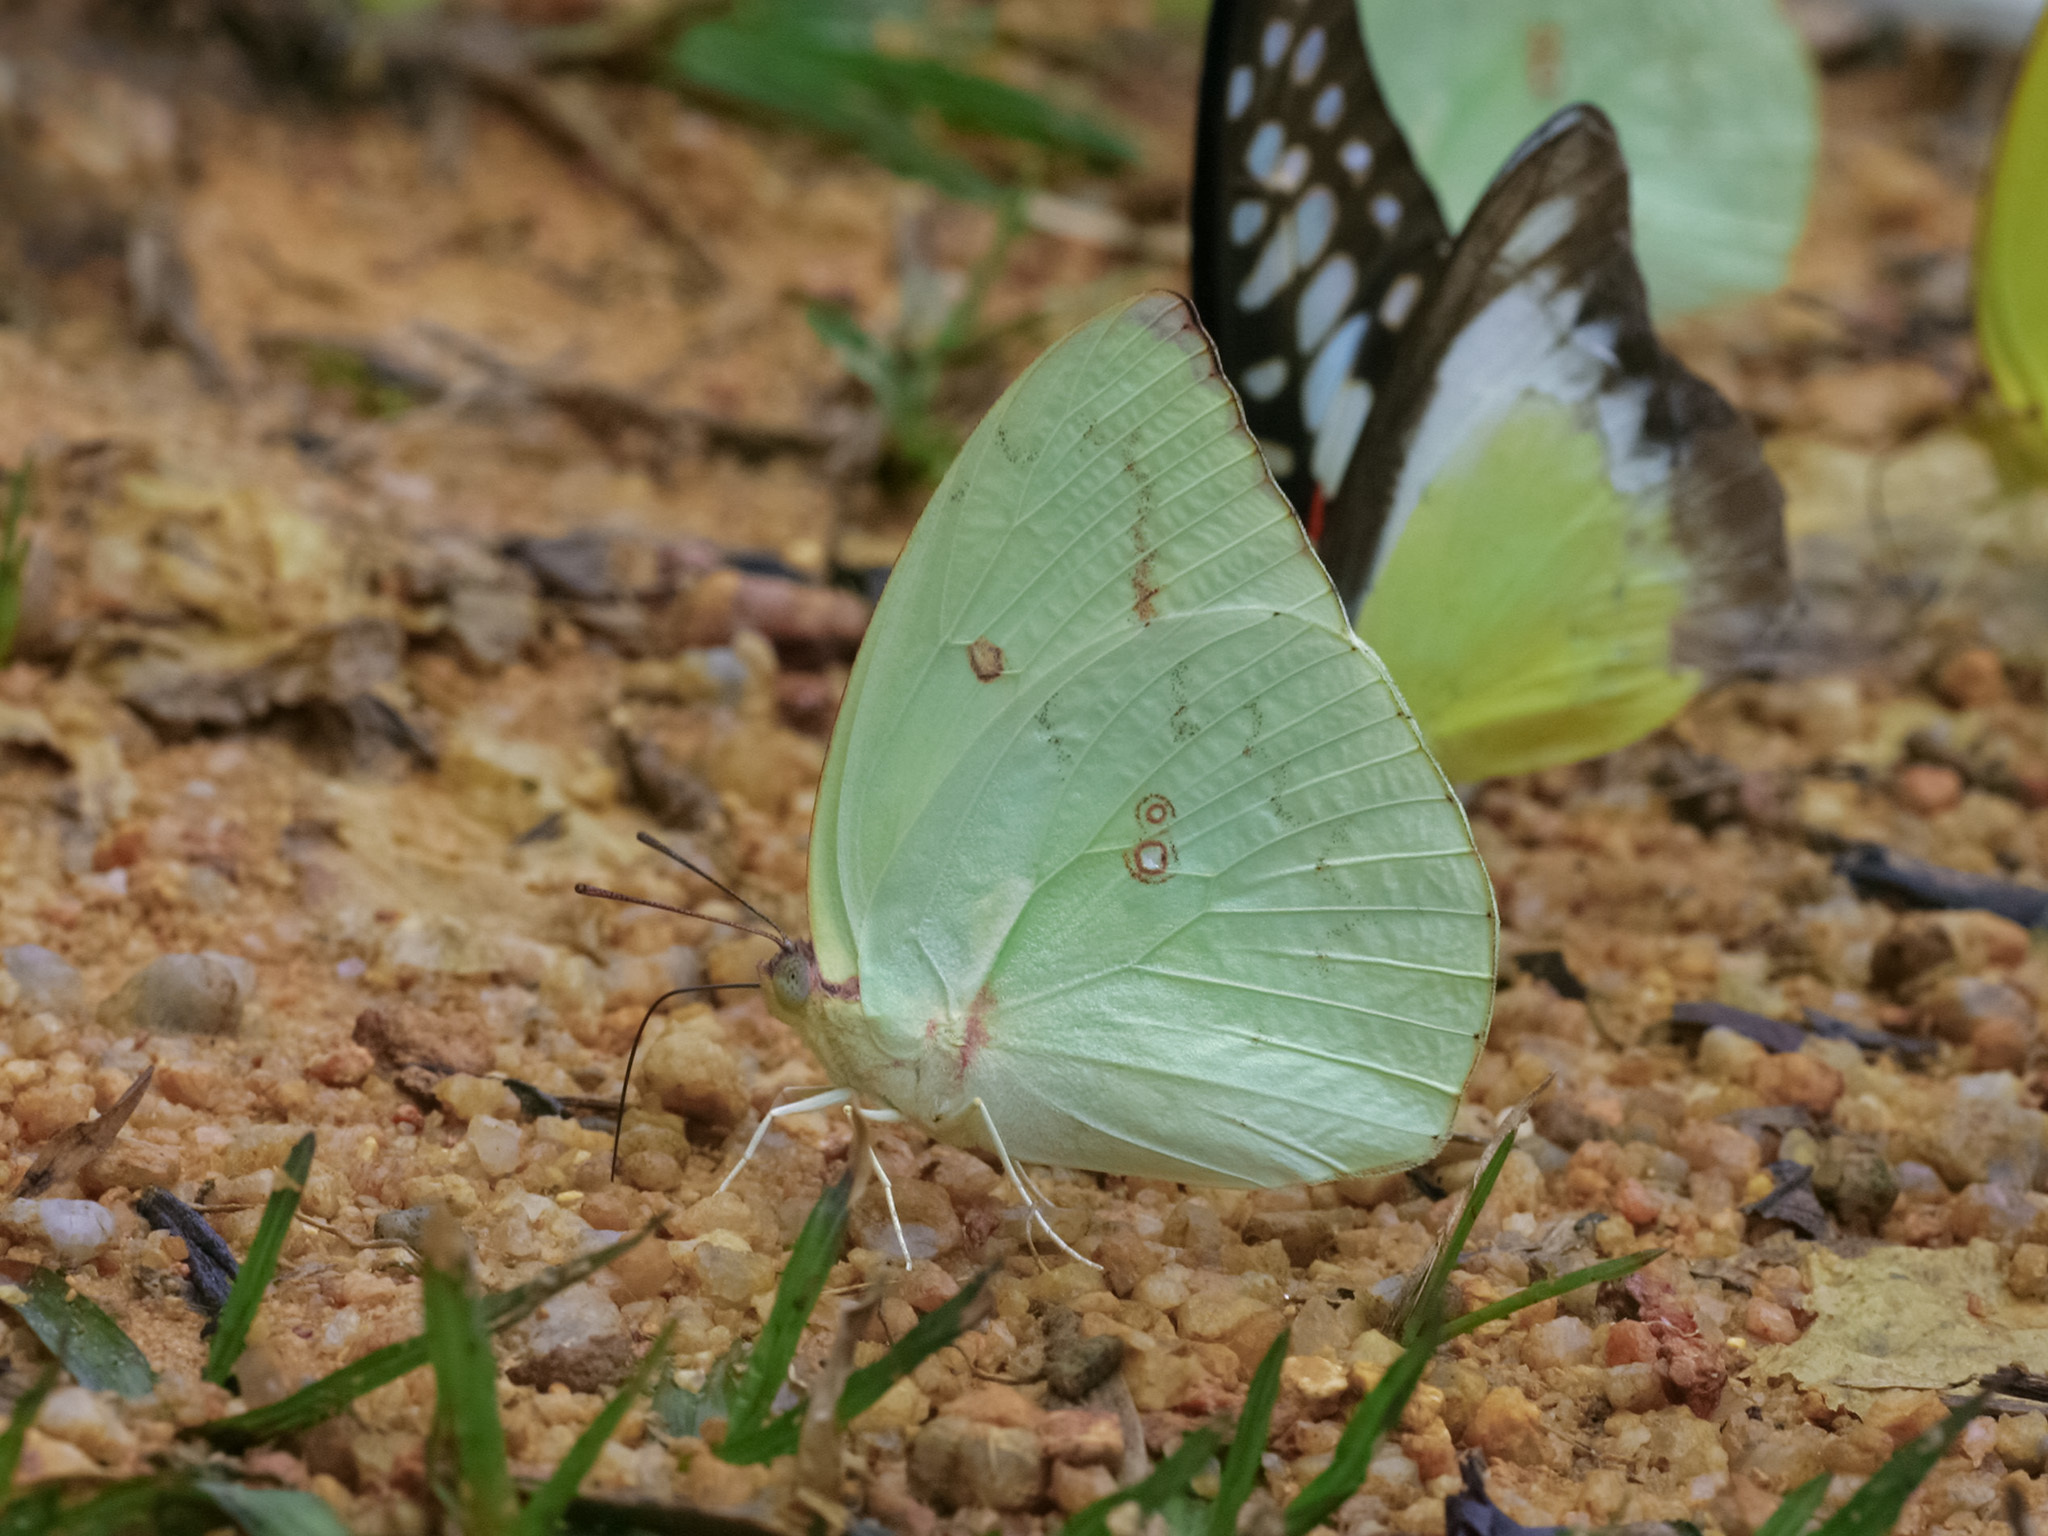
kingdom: Animalia
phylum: Arthropoda
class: Insecta
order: Lepidoptera
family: Pieridae
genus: Catopsilia
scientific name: Catopsilia pomona
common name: Common emigrant
